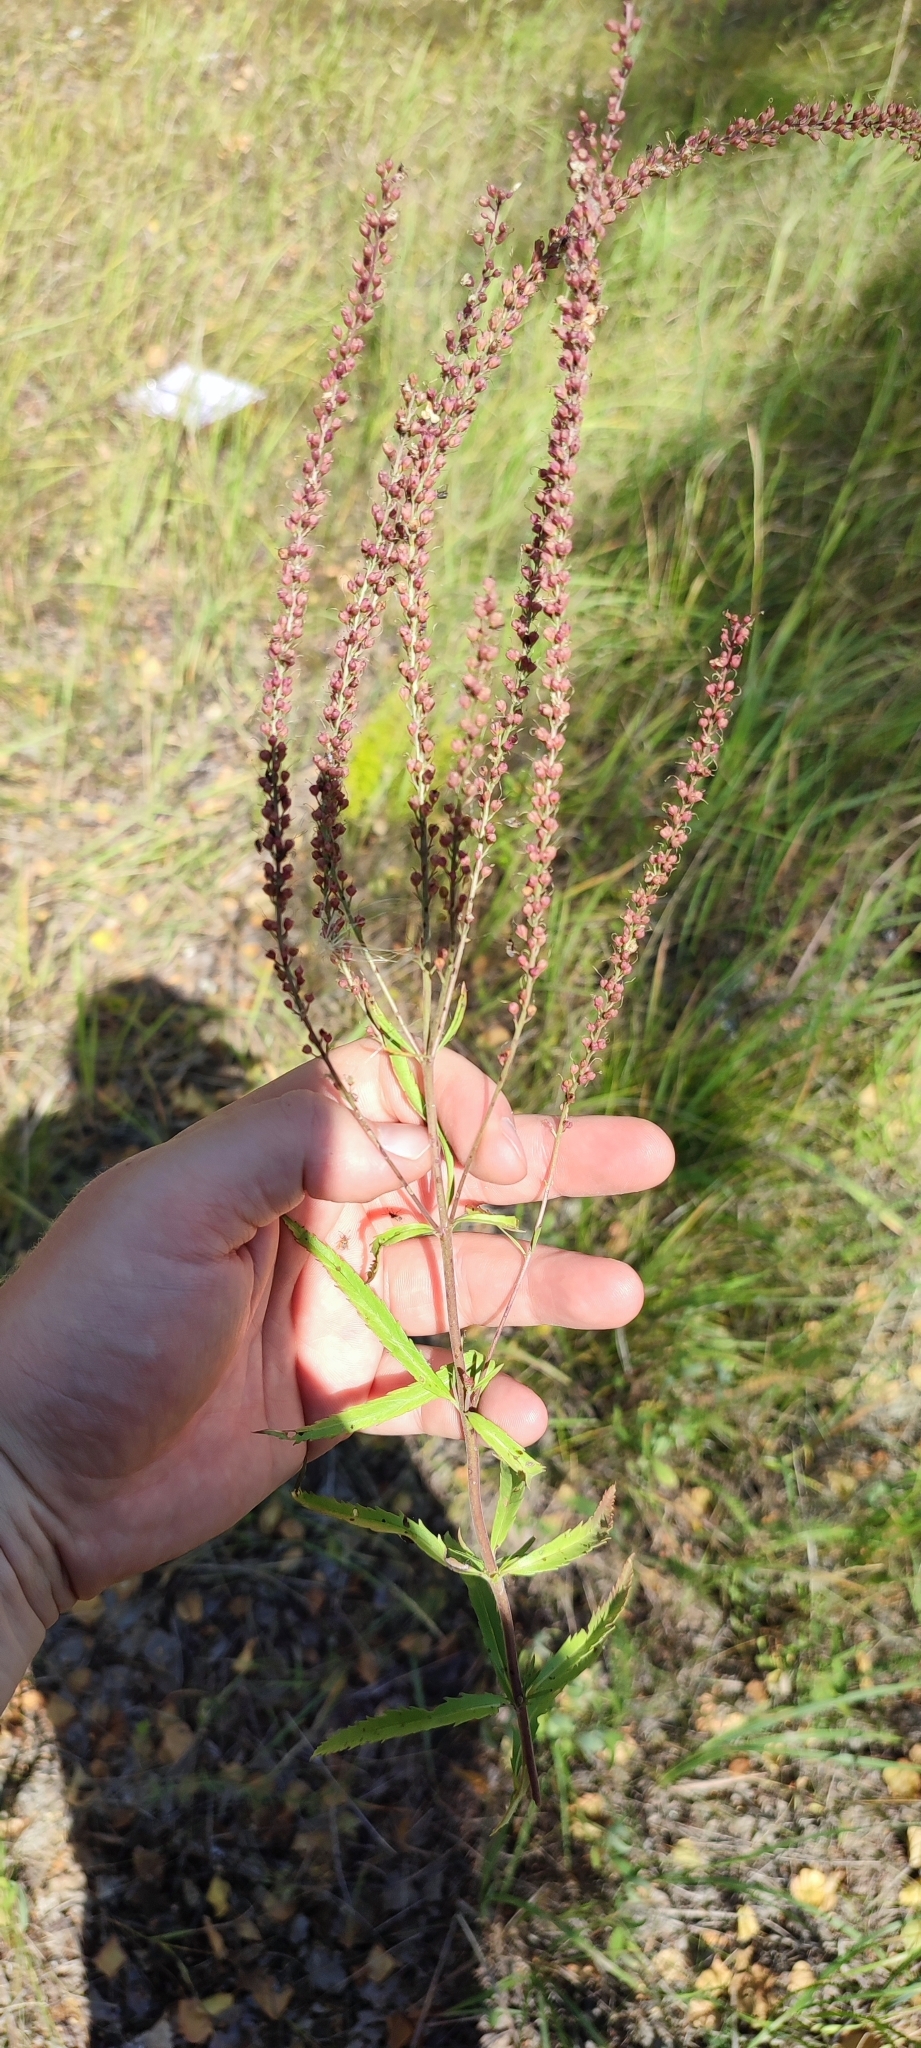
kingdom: Plantae
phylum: Tracheophyta
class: Magnoliopsida
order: Lamiales
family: Plantaginaceae
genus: Veronica
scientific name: Veronica spuria
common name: Bastard speedwell
